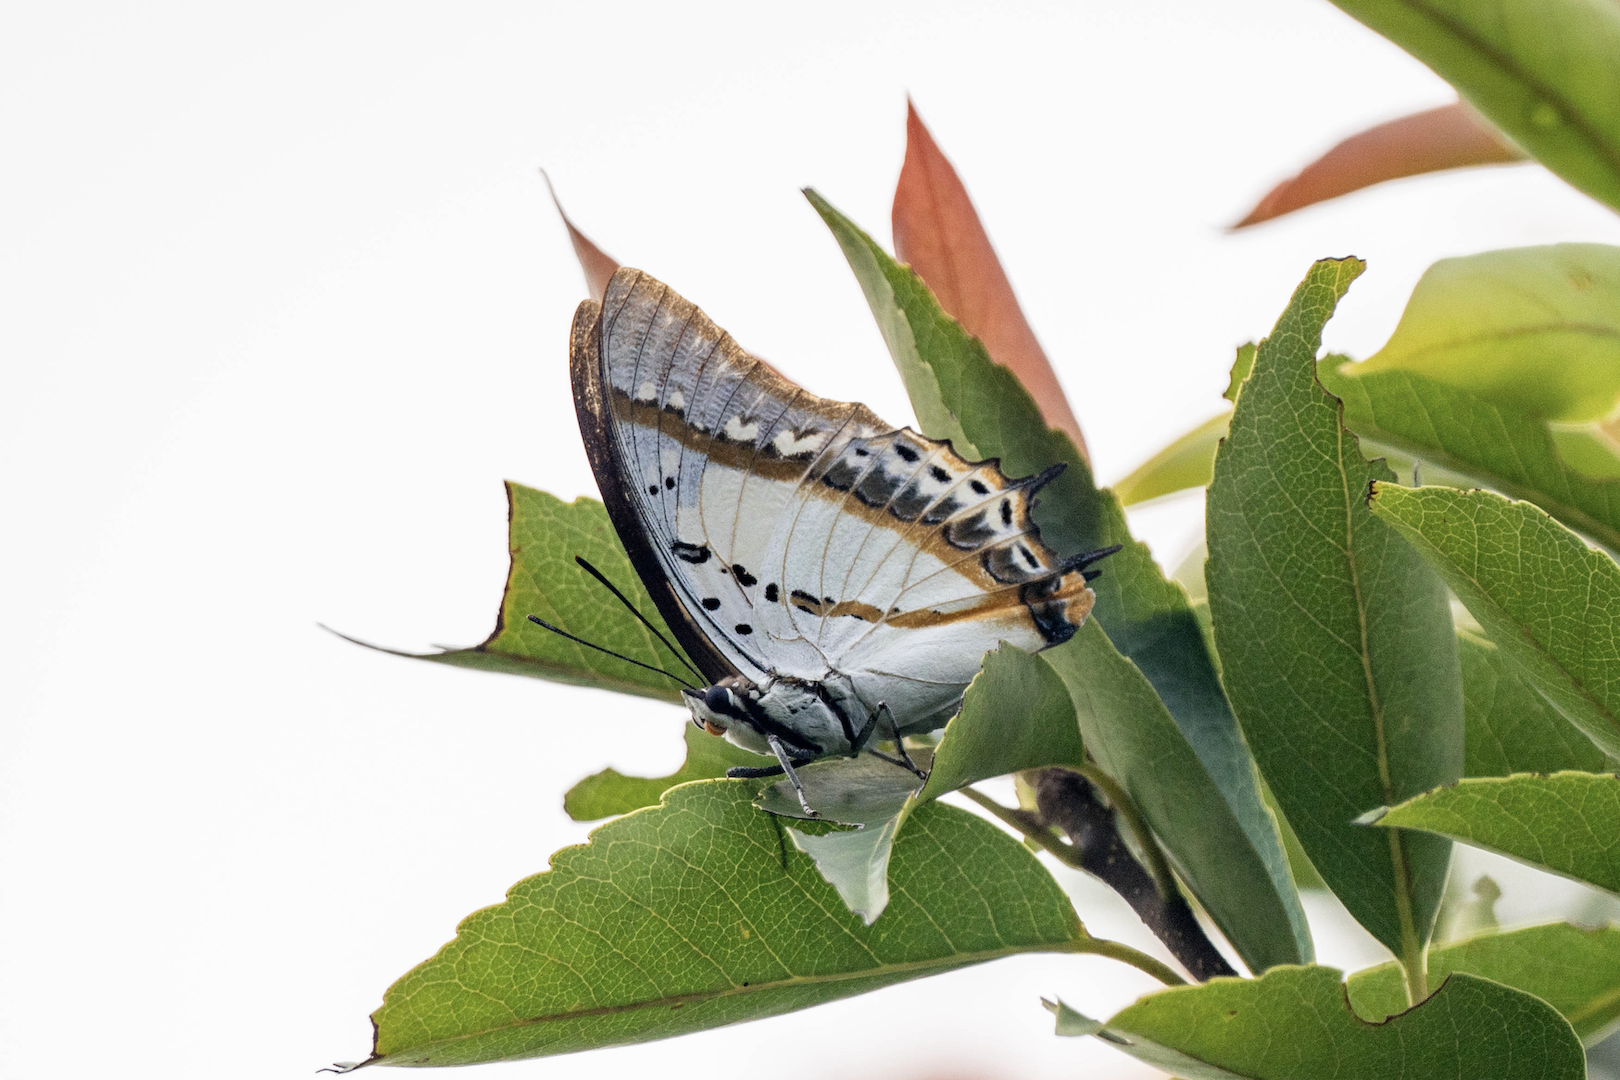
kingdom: Animalia
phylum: Arthropoda
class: Insecta
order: Lepidoptera
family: Nymphalidae
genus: Polyura
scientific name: Polyura nepenthes
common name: Shan nawab
